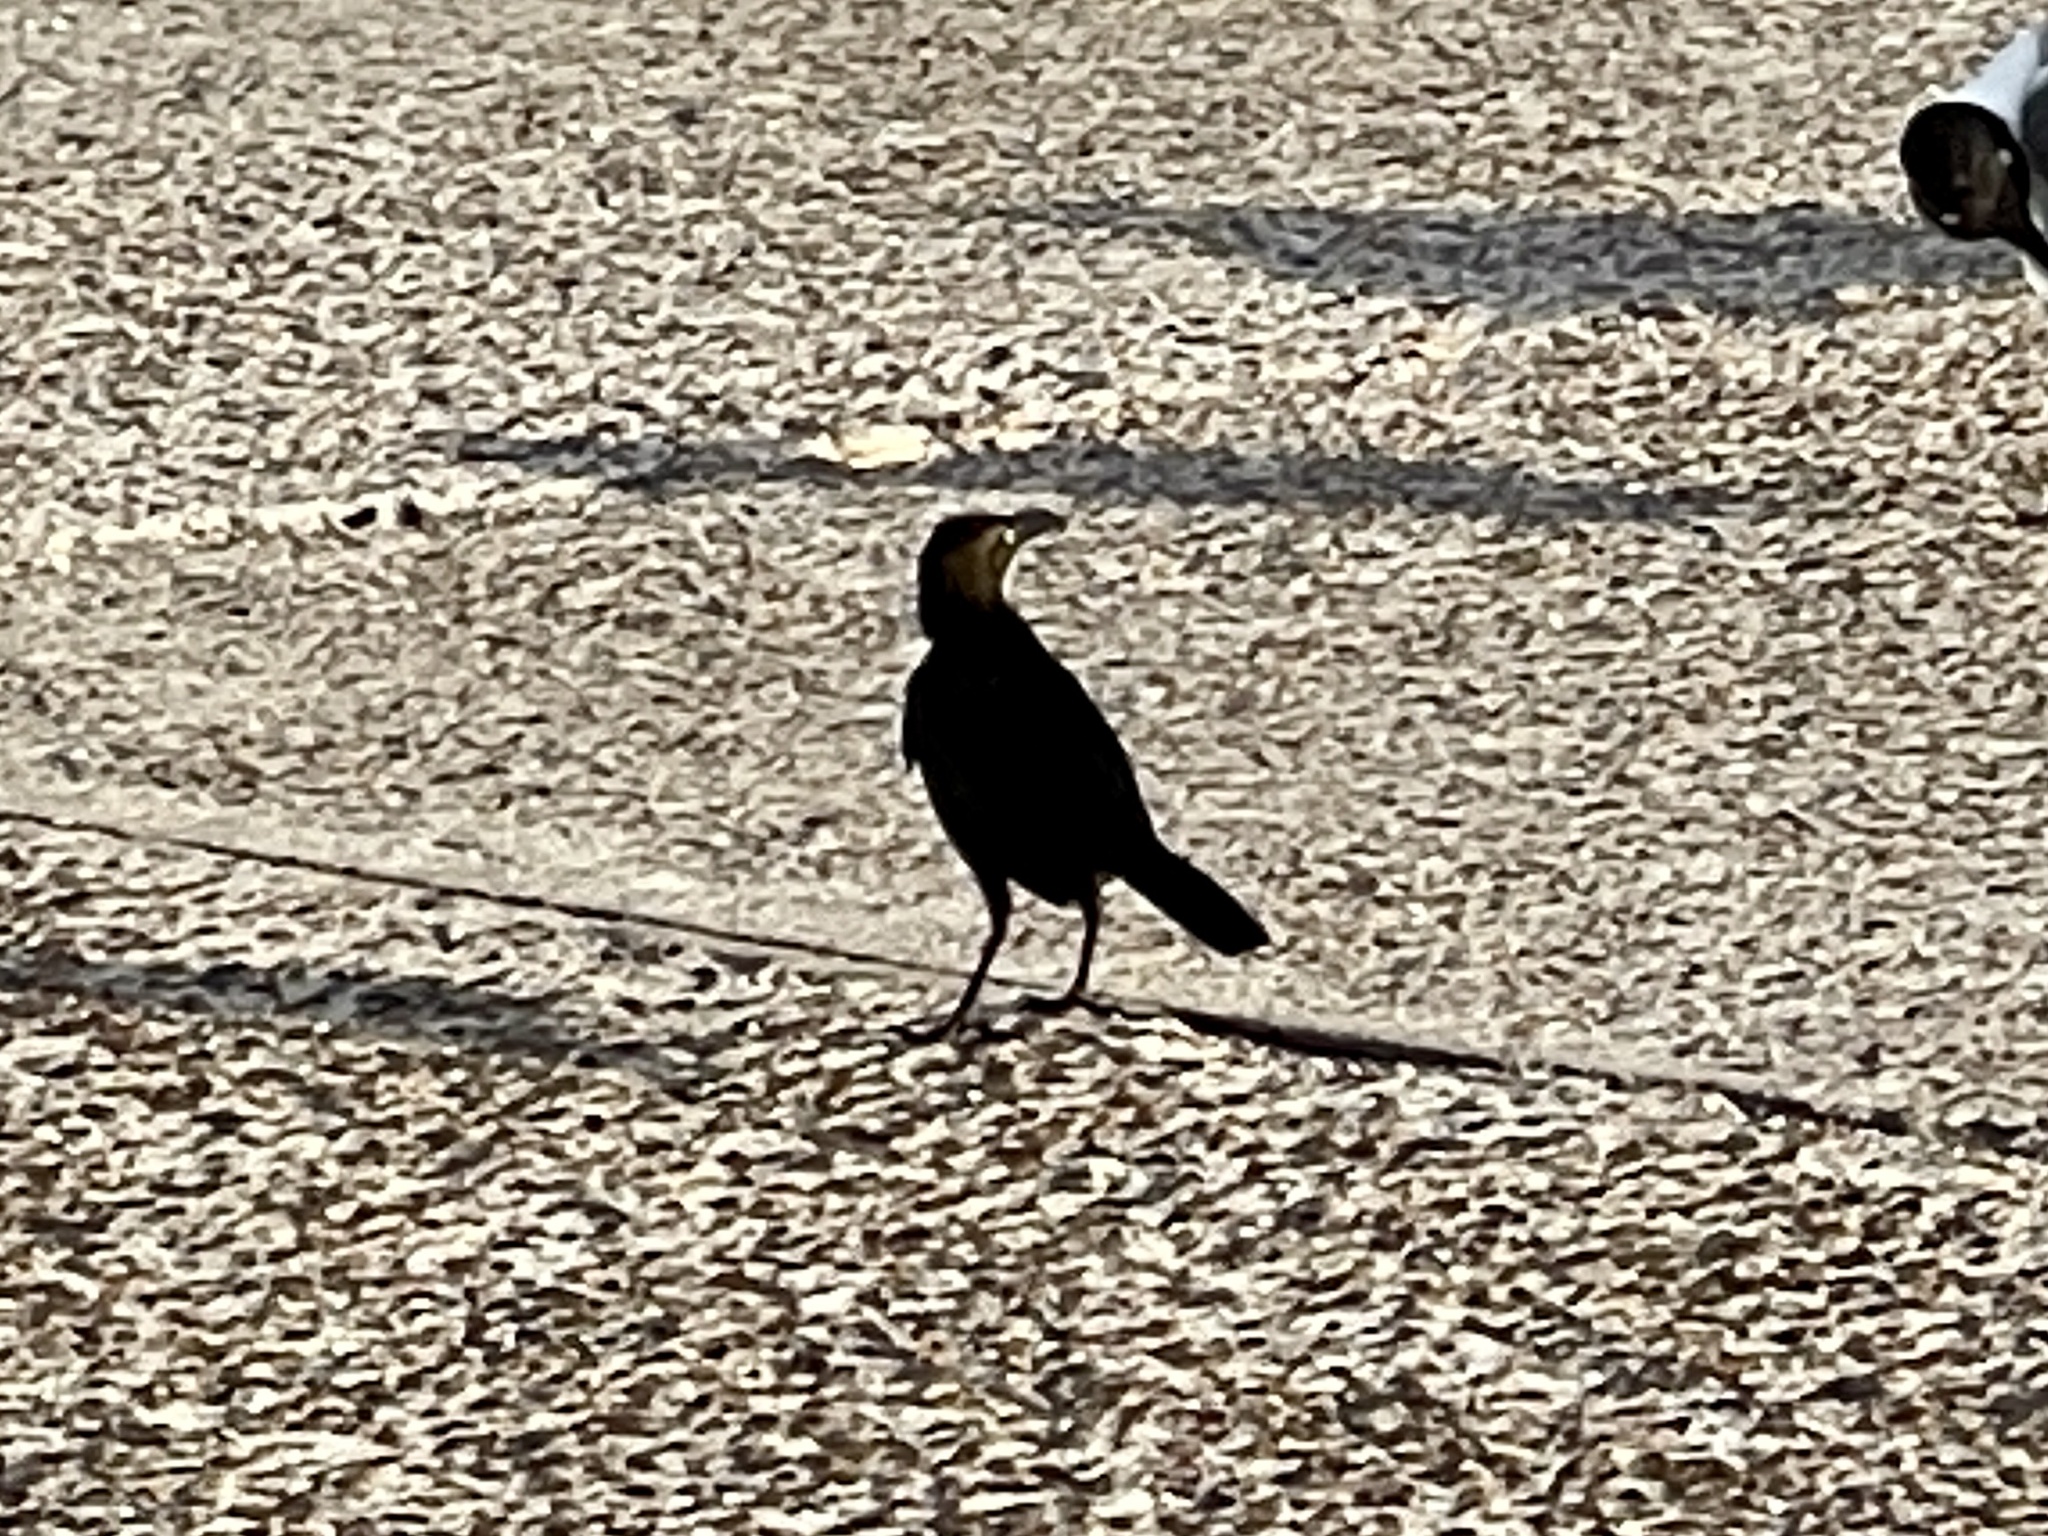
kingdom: Animalia
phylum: Chordata
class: Aves
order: Passeriformes
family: Icteridae
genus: Quiscalus
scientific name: Quiscalus mexicanus
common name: Great-tailed grackle
